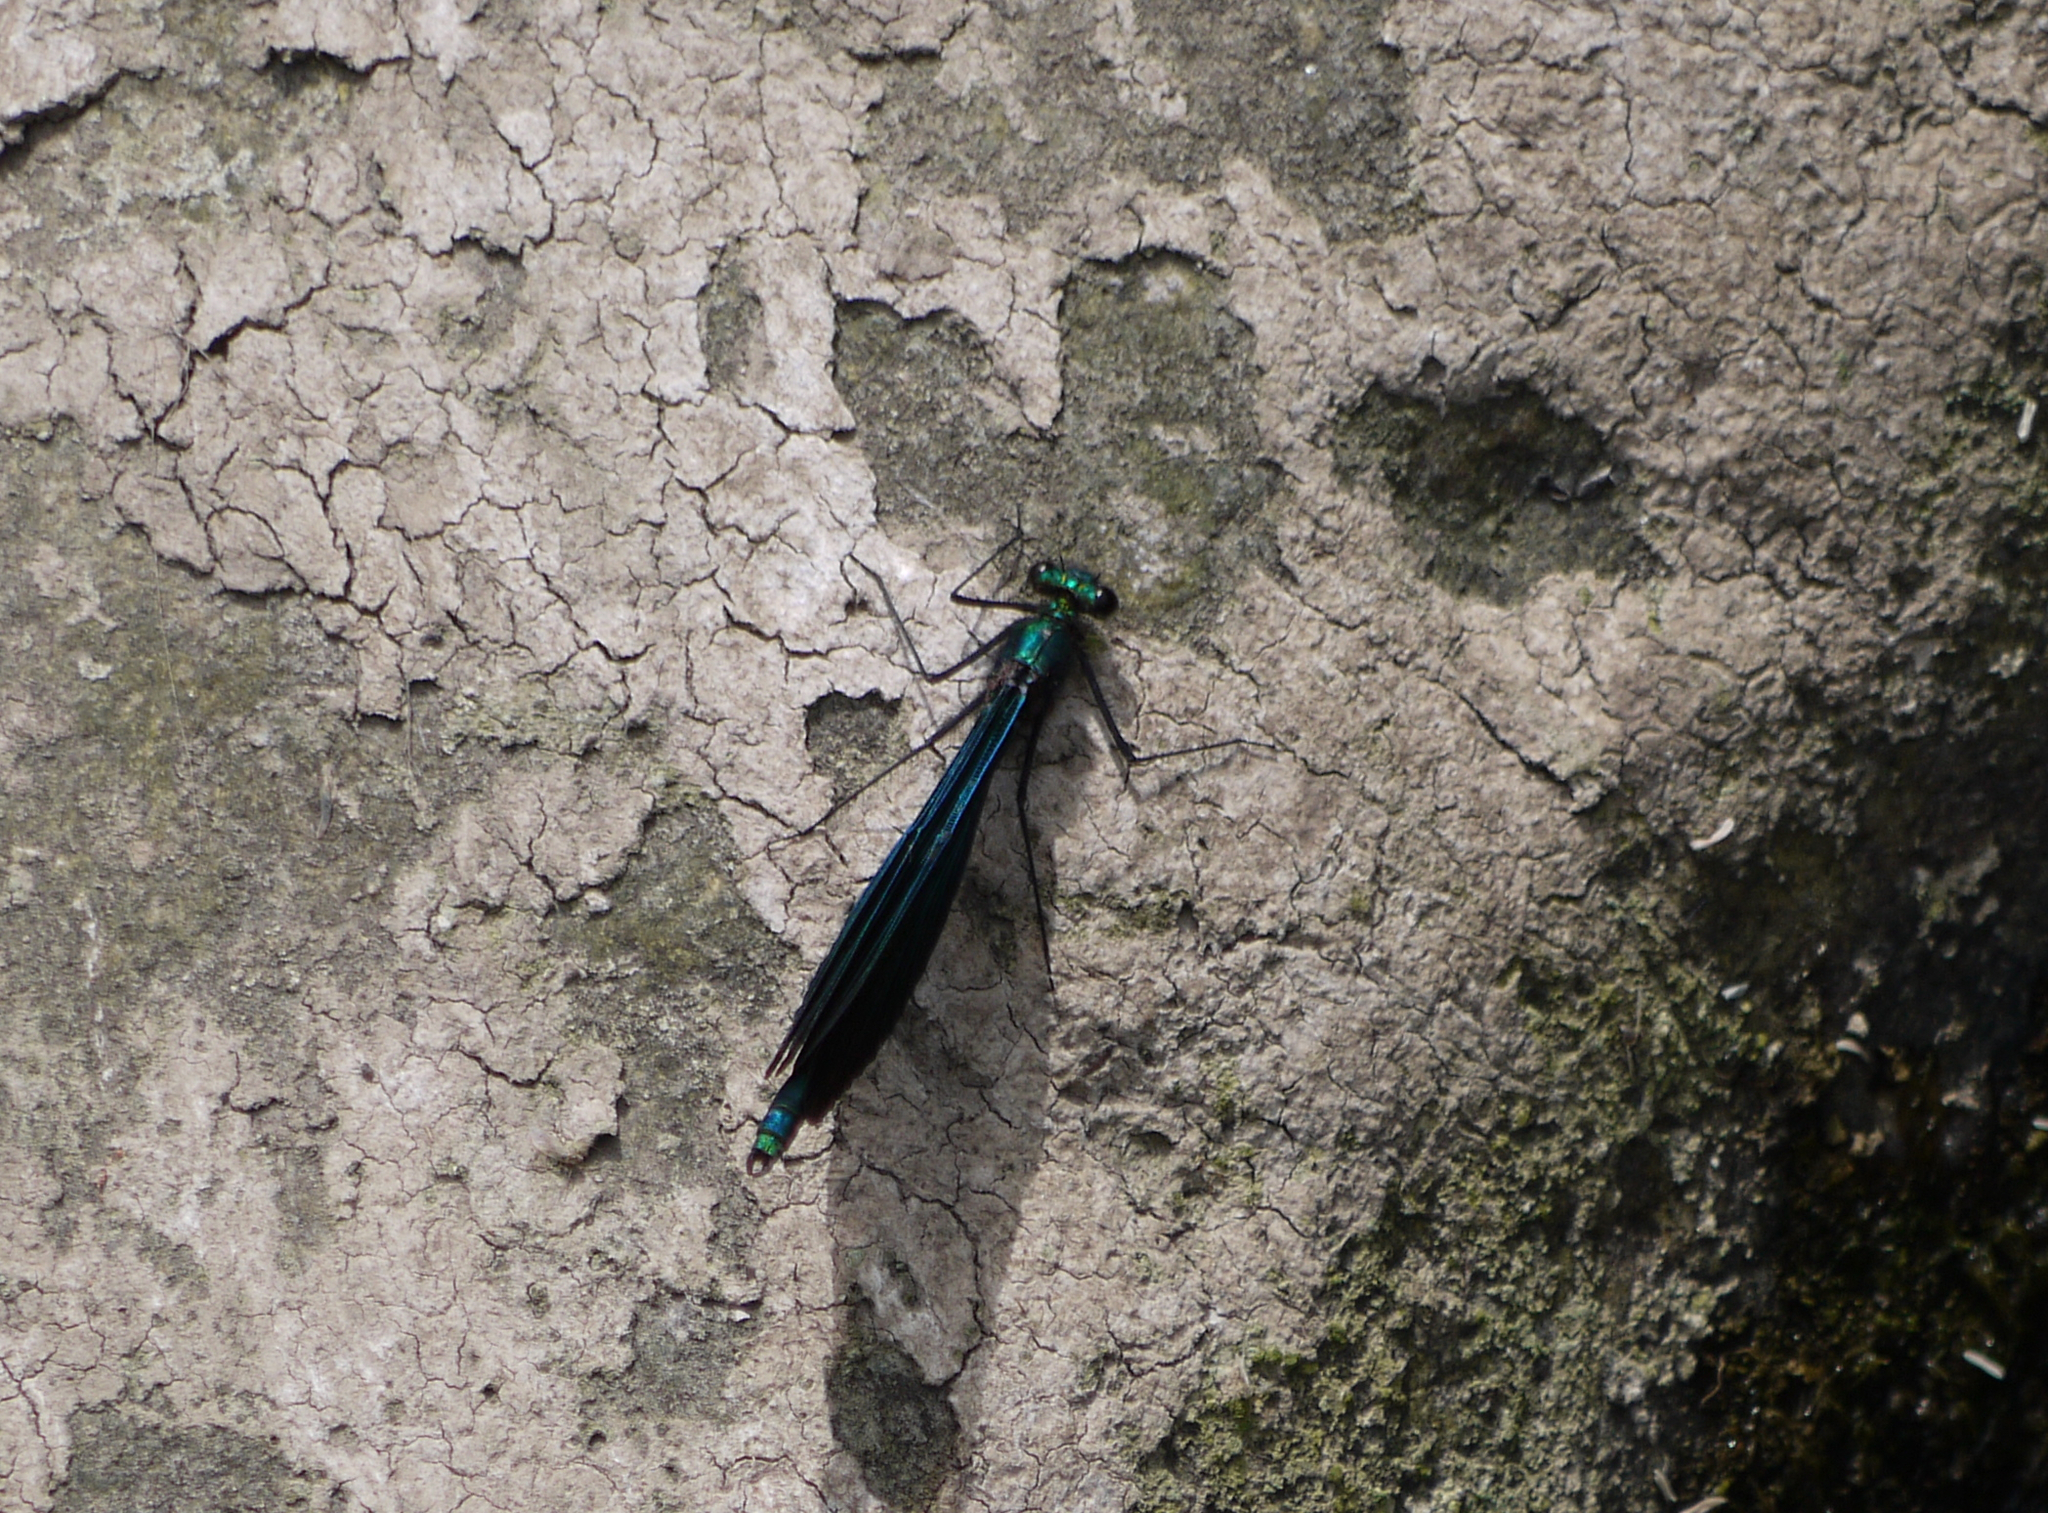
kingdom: Animalia
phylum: Arthropoda
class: Insecta
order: Odonata
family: Calopterygidae
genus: Calopteryx
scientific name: Calopteryx virgo
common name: Beautiful demoiselle
